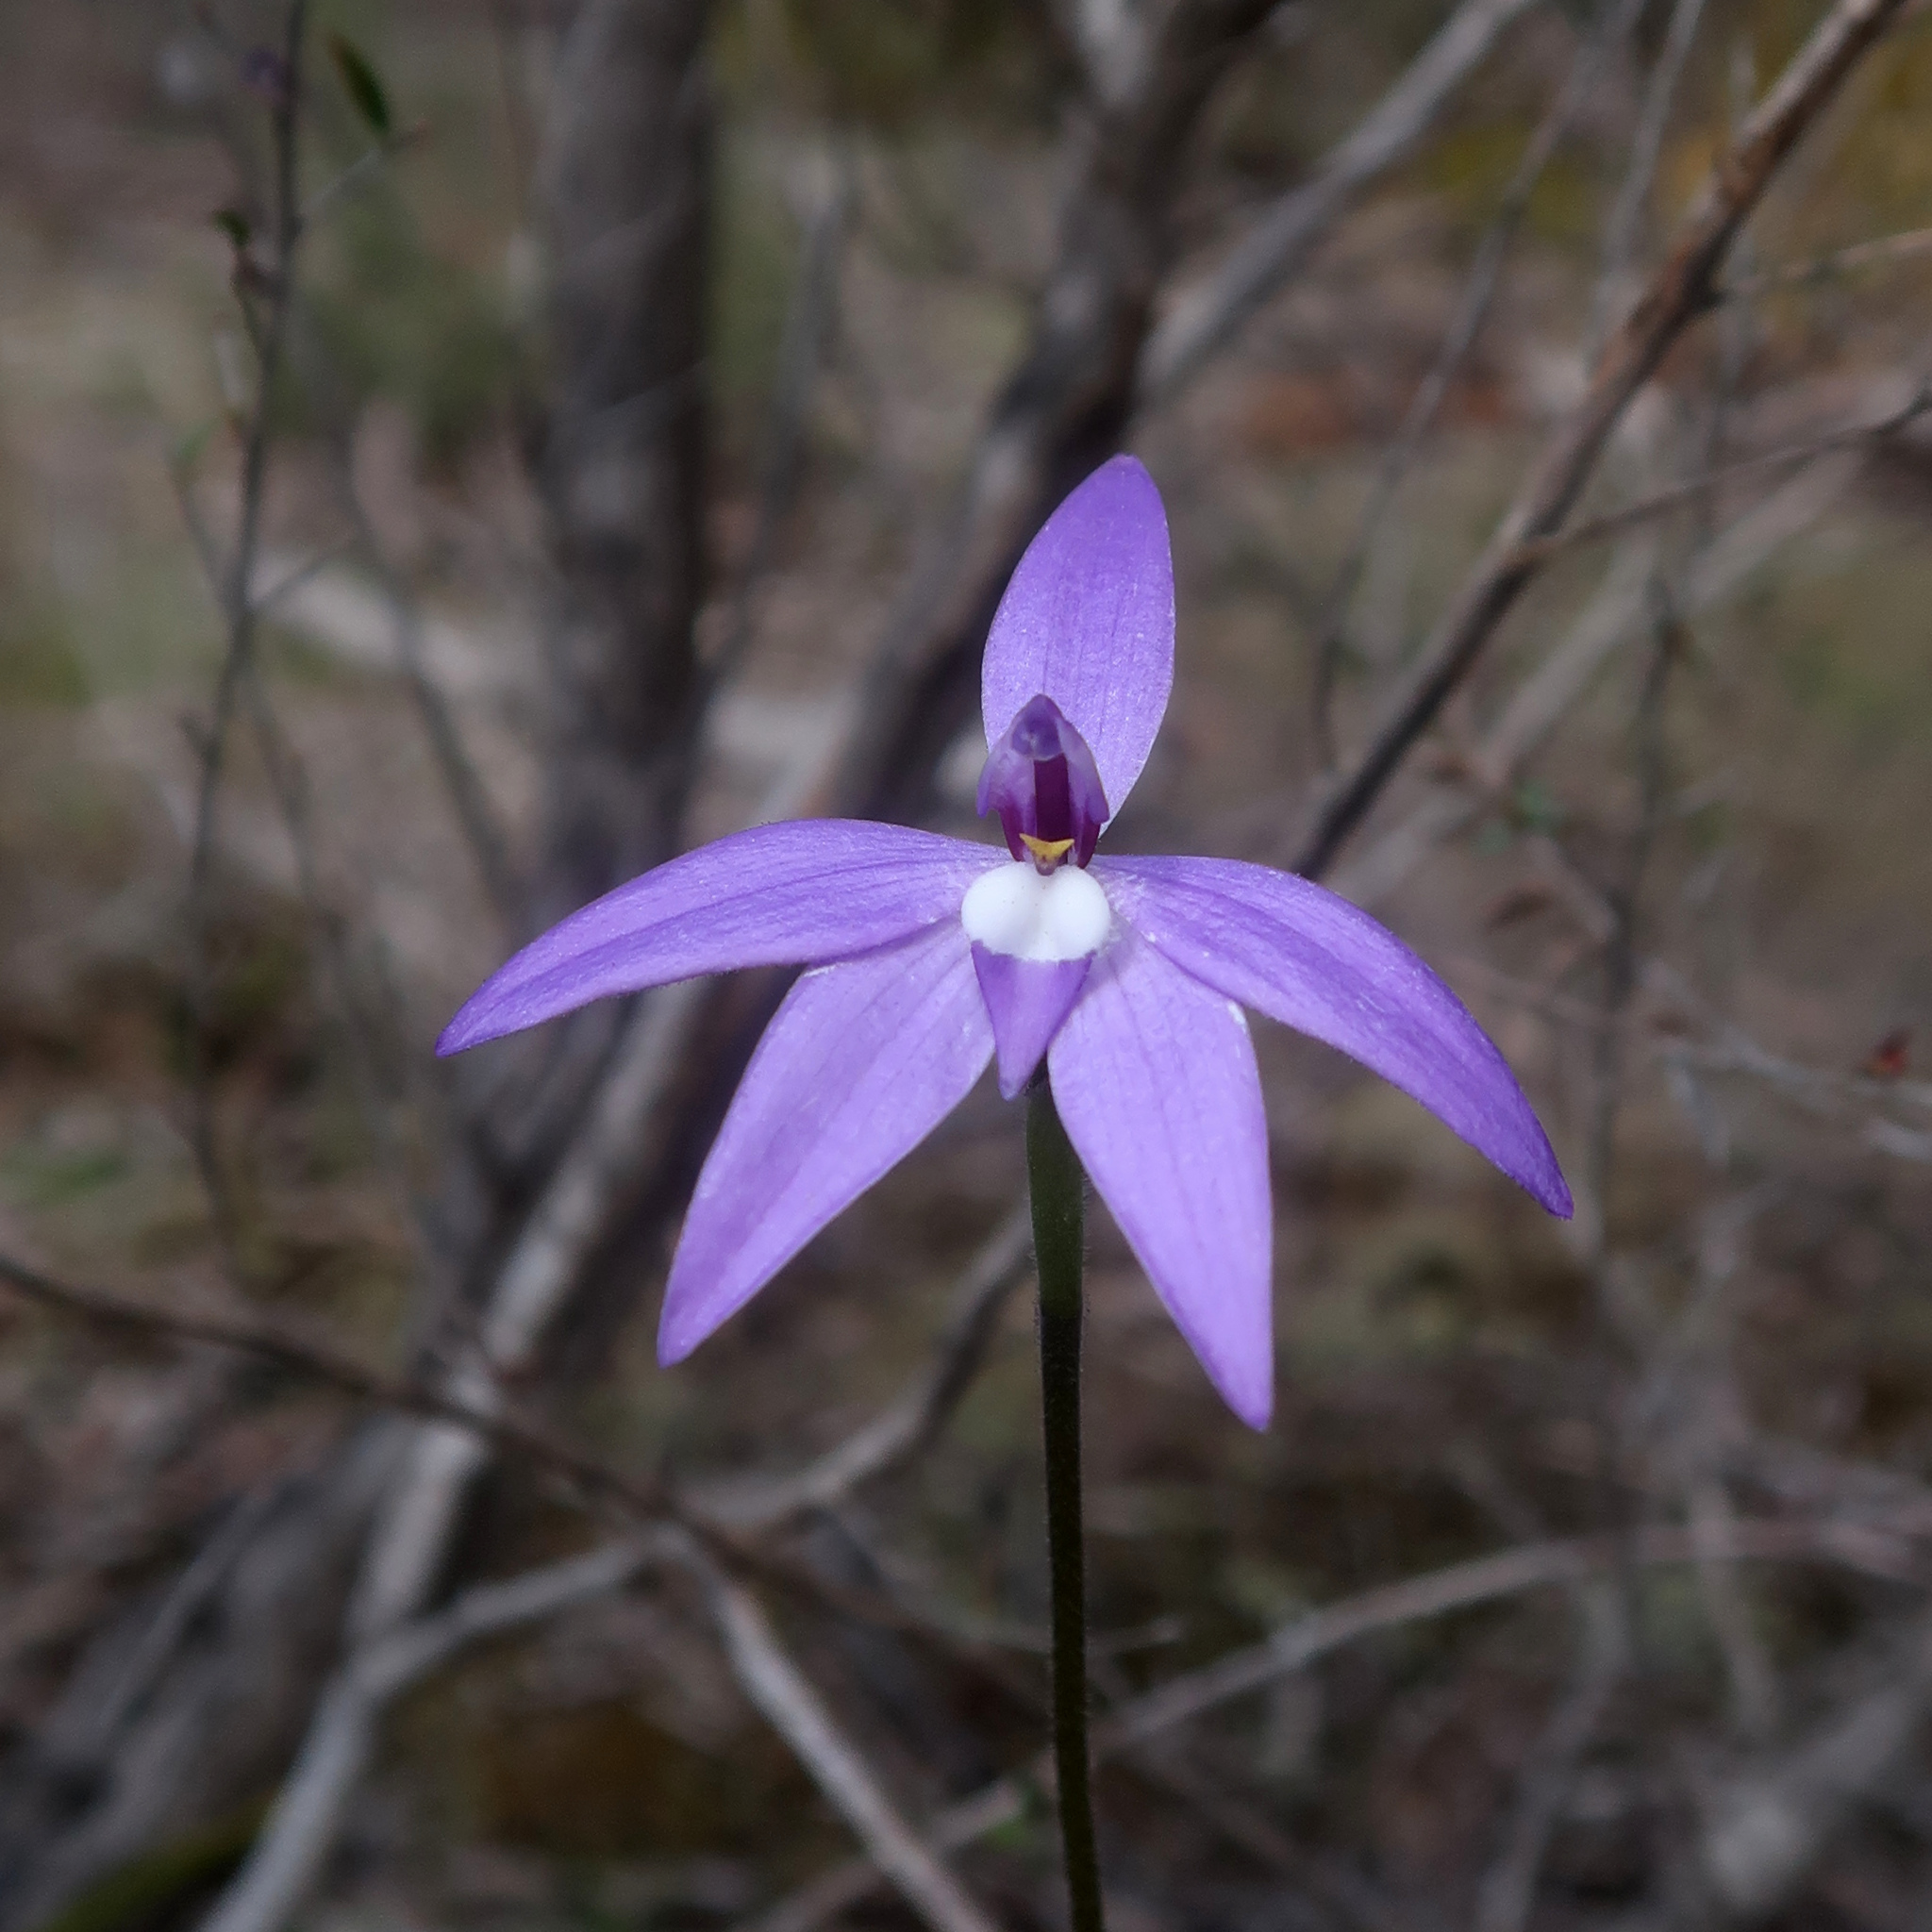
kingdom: Plantae
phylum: Tracheophyta
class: Liliopsida
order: Asparagales
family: Orchidaceae
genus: Caladenia
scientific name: Caladenia major
